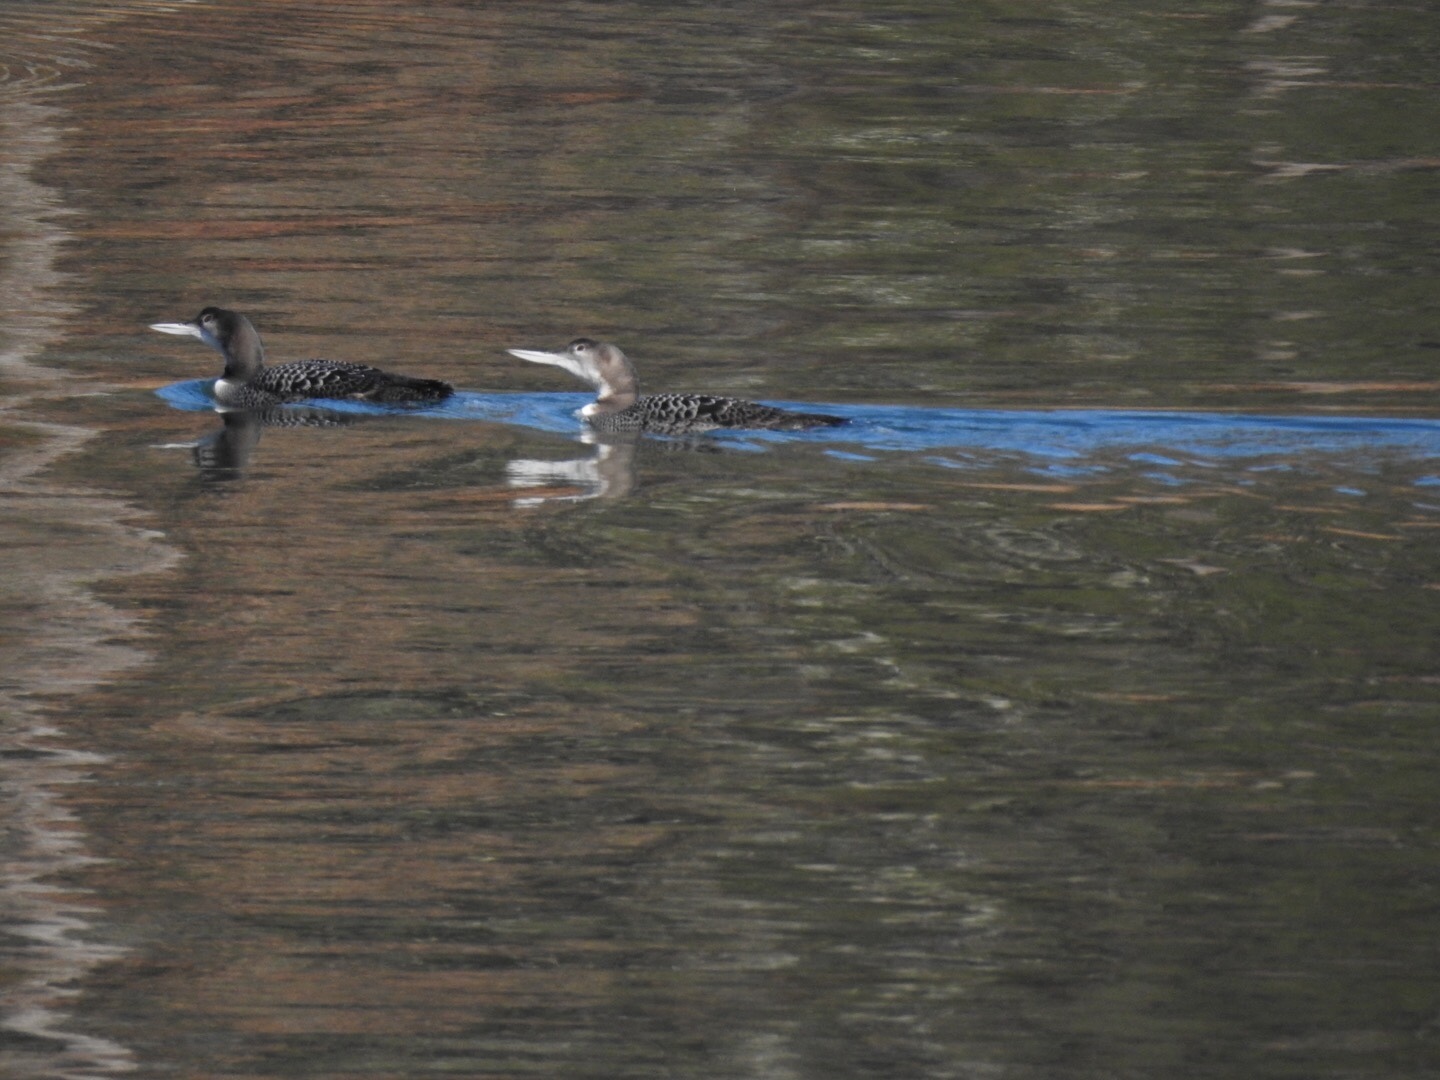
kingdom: Animalia
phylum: Chordata
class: Aves
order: Gaviiformes
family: Gaviidae
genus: Gavia
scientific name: Gavia immer
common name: Common loon
